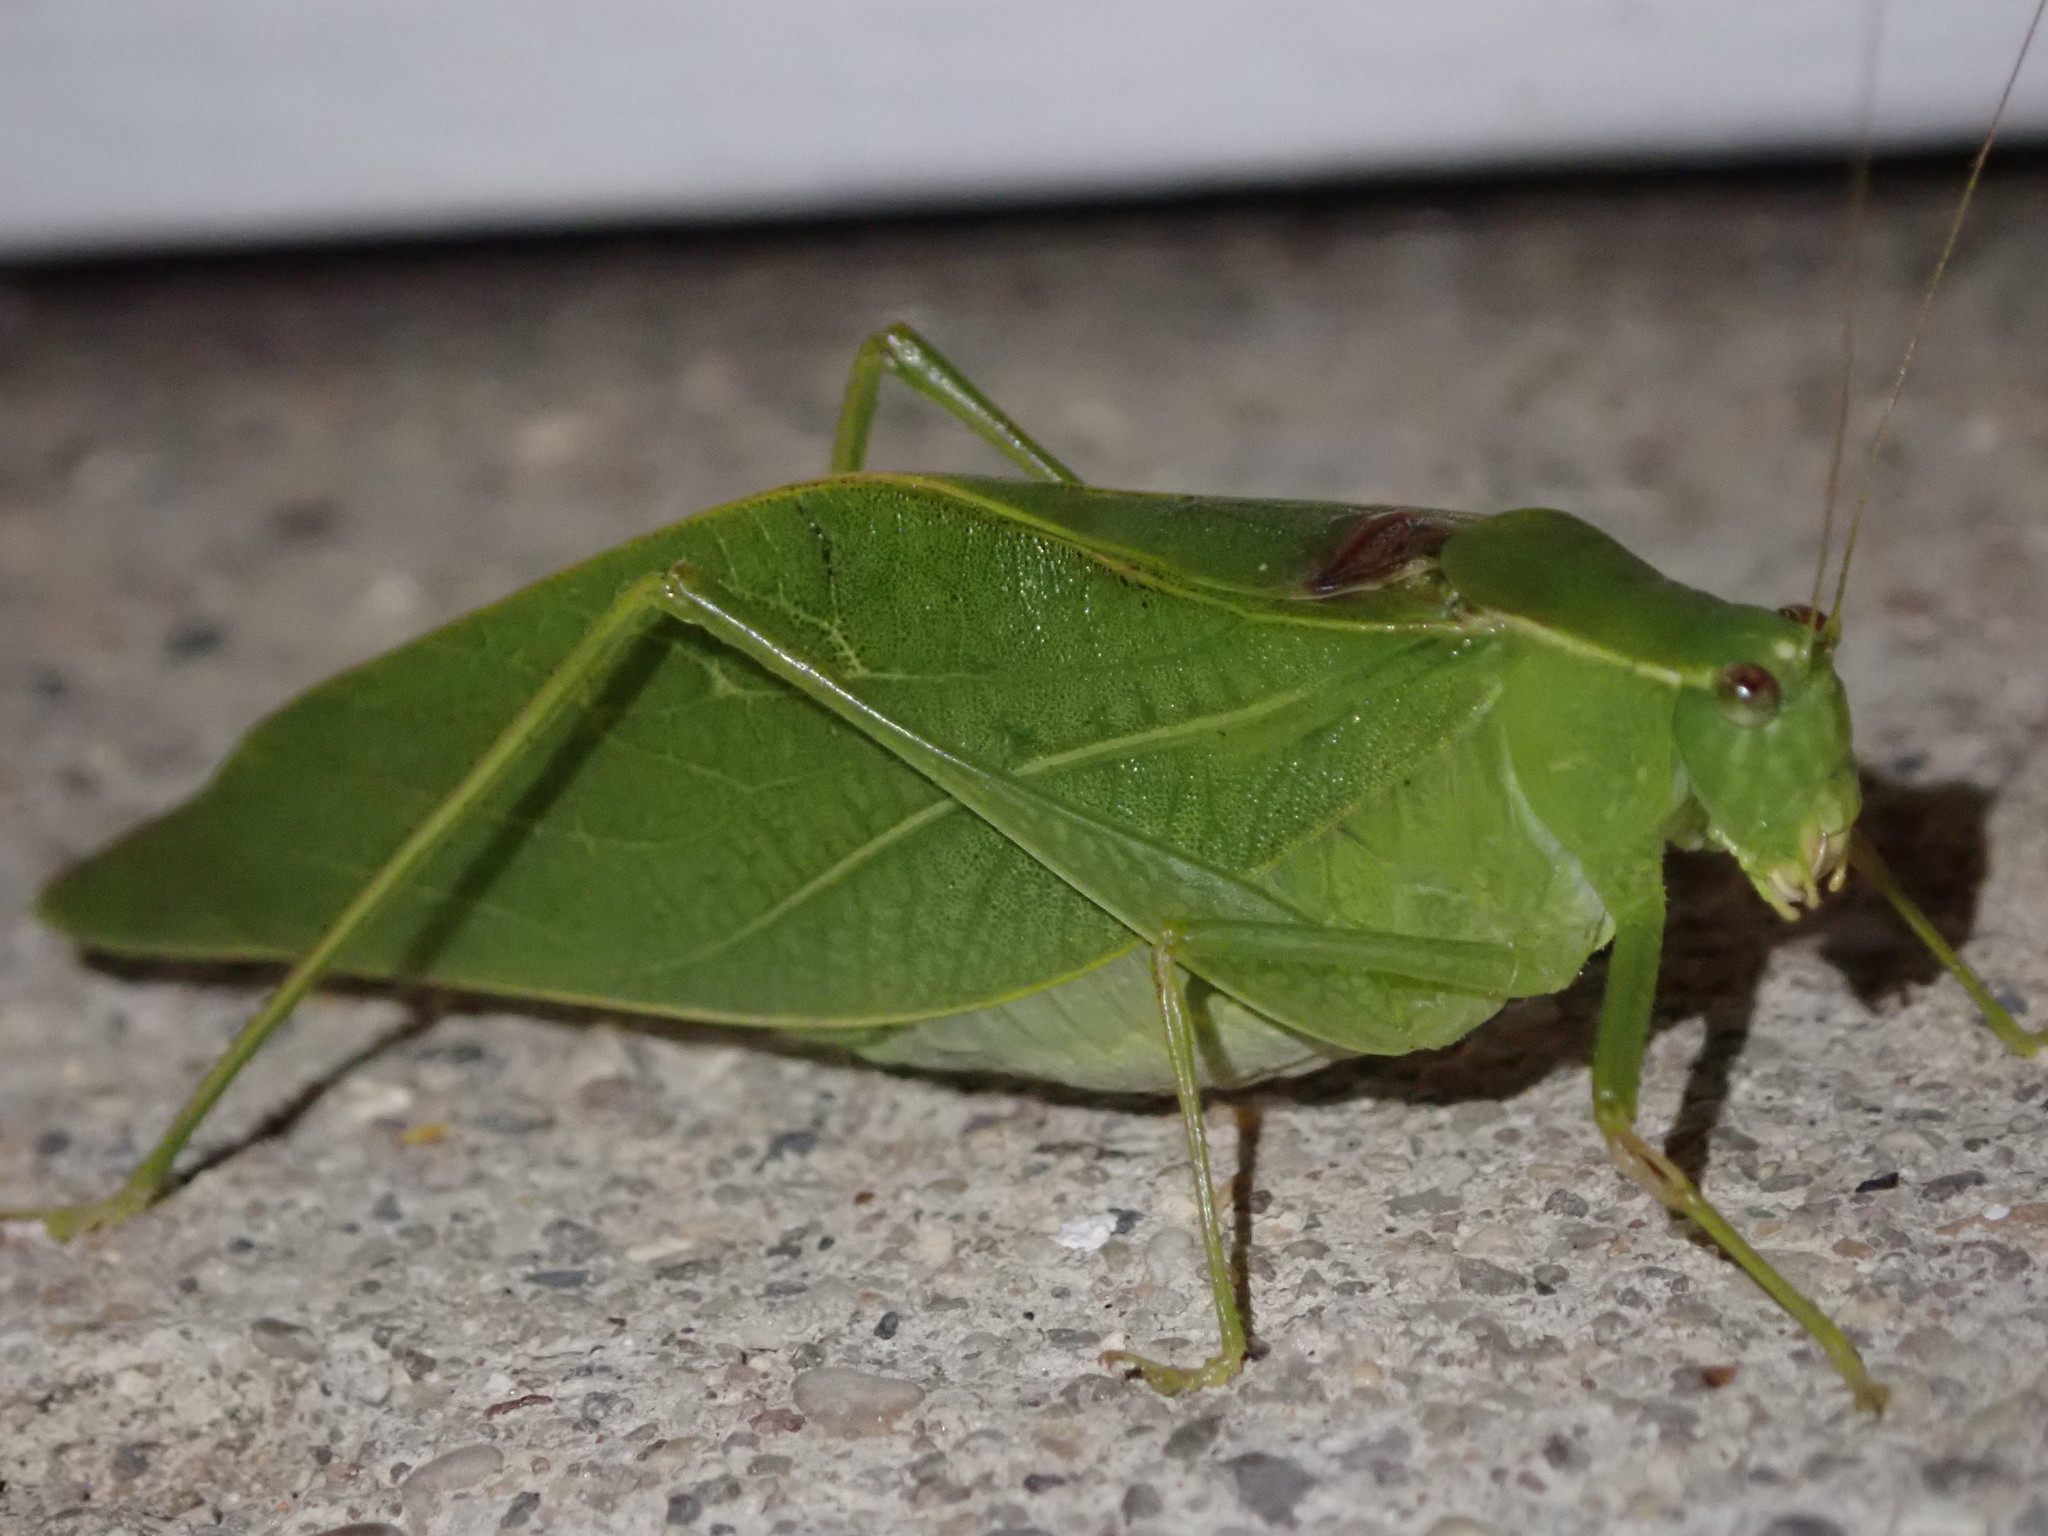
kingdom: Animalia
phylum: Arthropoda
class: Insecta
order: Orthoptera
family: Tettigoniidae
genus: Microcentrum
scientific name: Microcentrum retinerve
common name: Angular-winged katydid
